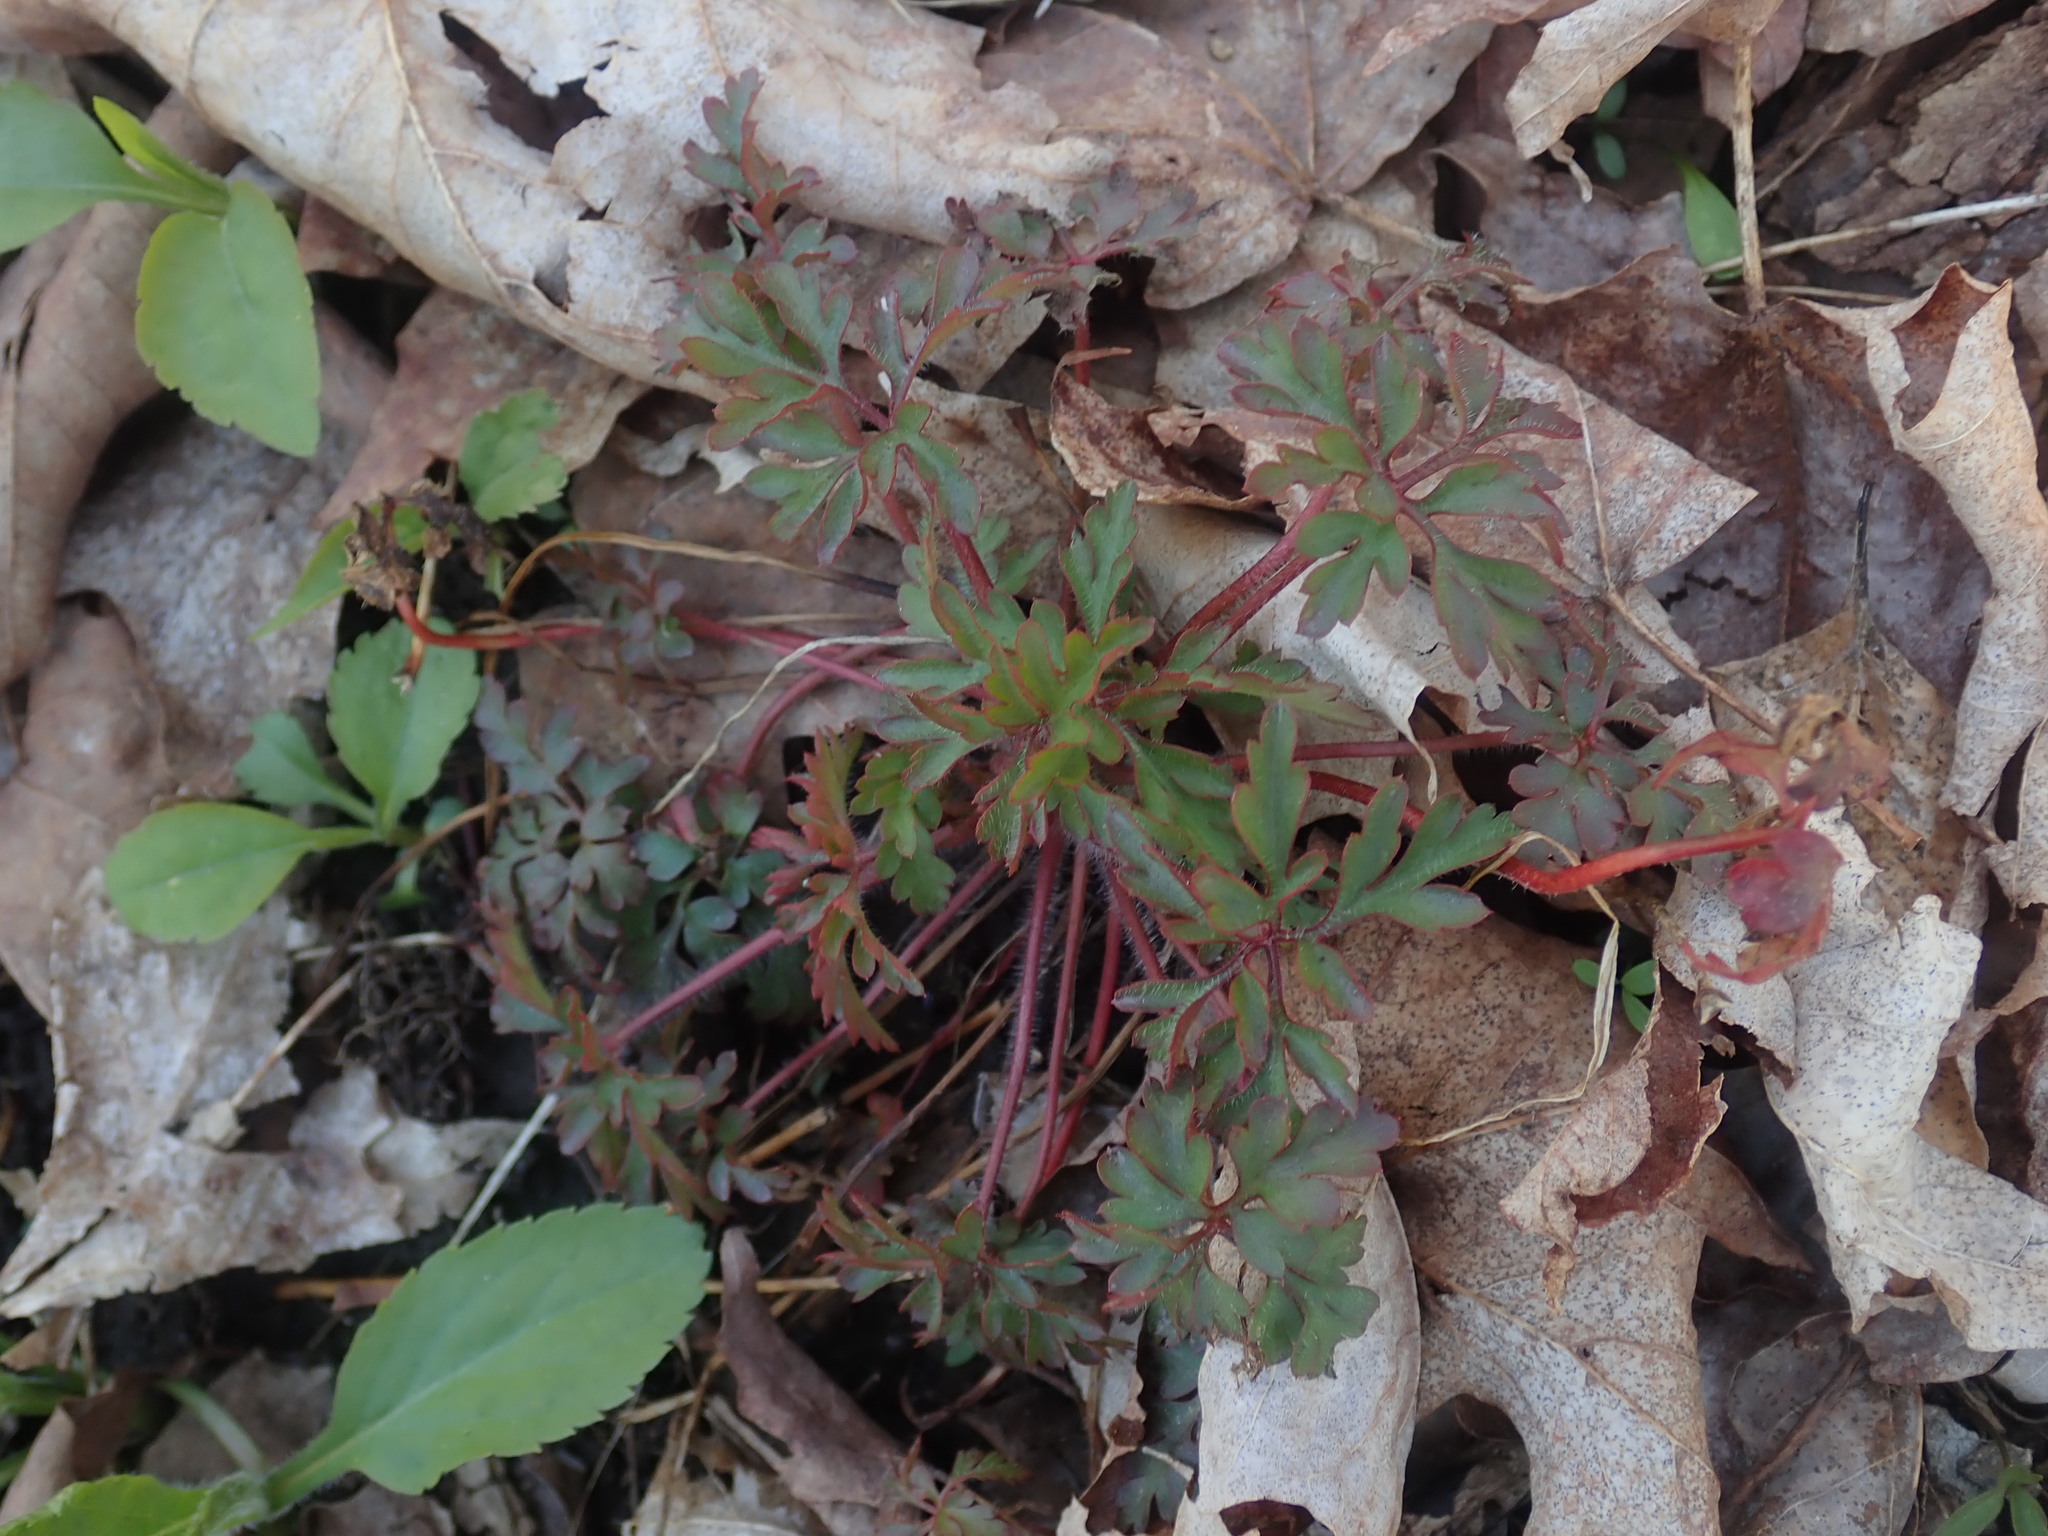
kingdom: Plantae
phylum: Tracheophyta
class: Magnoliopsida
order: Geraniales
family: Geraniaceae
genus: Geranium
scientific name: Geranium robertianum
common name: Herb-robert
